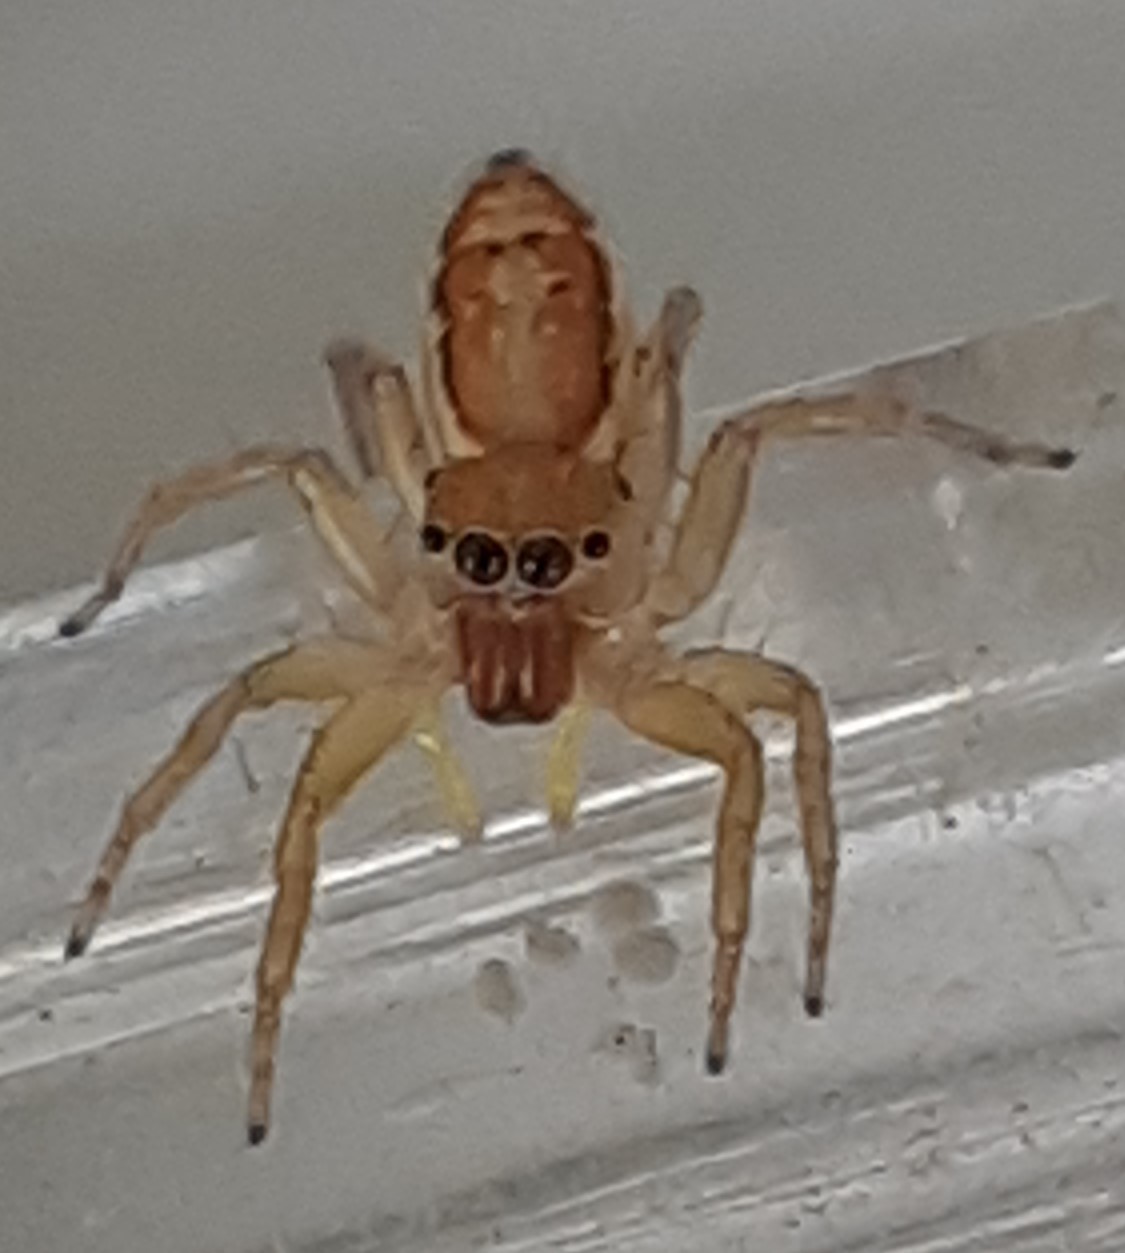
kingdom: Animalia
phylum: Arthropoda
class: Arachnida
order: Araneae
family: Salticidae
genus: Cosmophasis
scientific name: Cosmophasis lami
